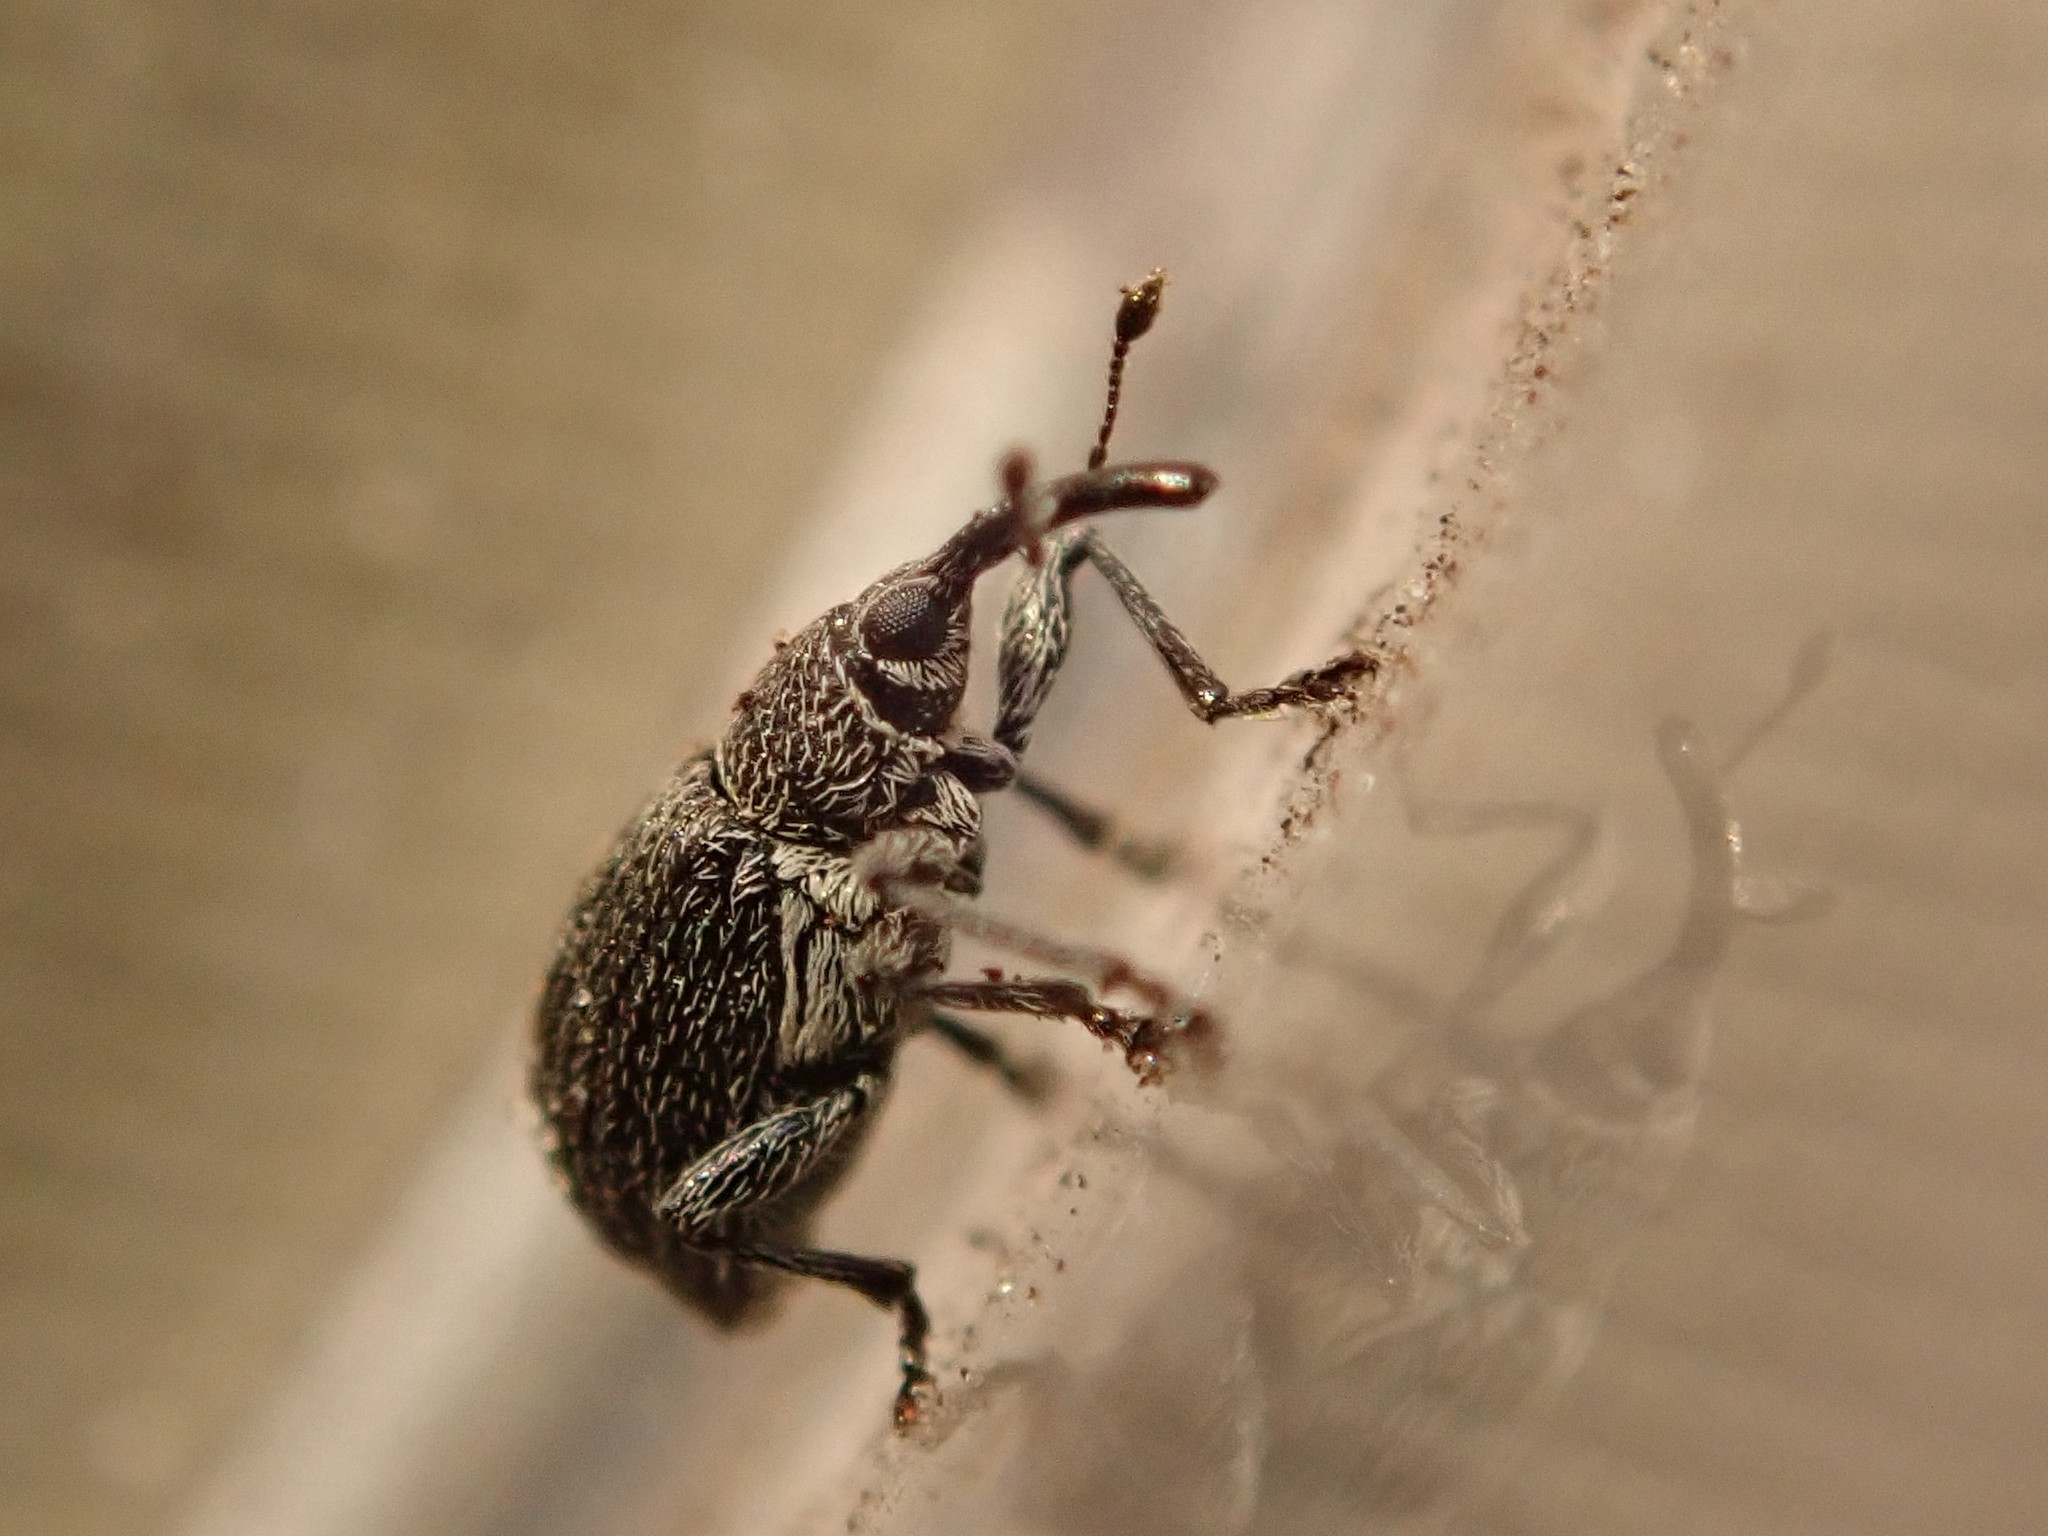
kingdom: Animalia
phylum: Arthropoda
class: Insecta
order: Coleoptera
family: Brentidae
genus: Betulapion
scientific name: Betulapion simile
